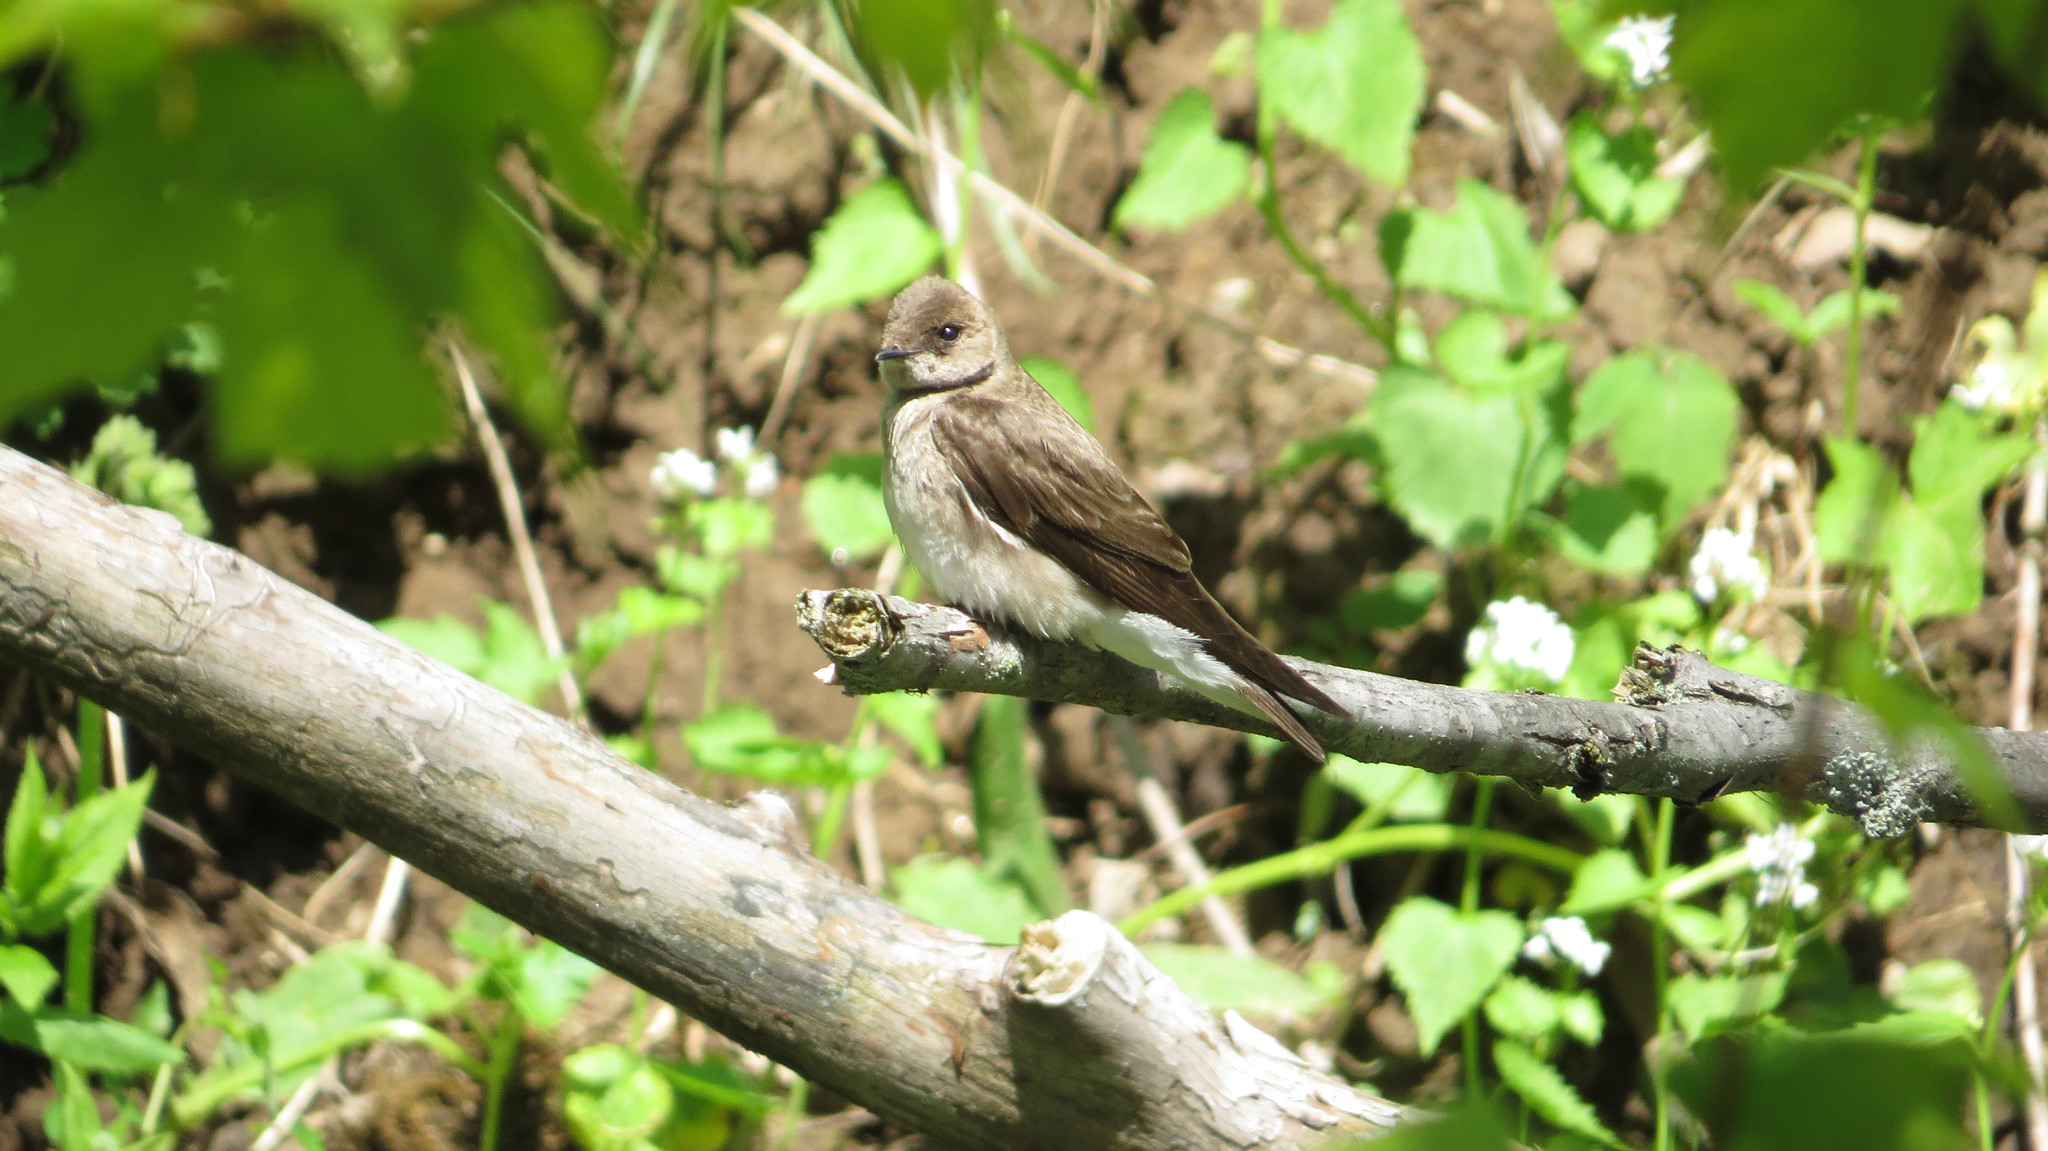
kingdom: Animalia
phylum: Chordata
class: Aves
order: Passeriformes
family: Hirundinidae
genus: Stelgidopteryx
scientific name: Stelgidopteryx serripennis
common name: Northern rough-winged swallow
